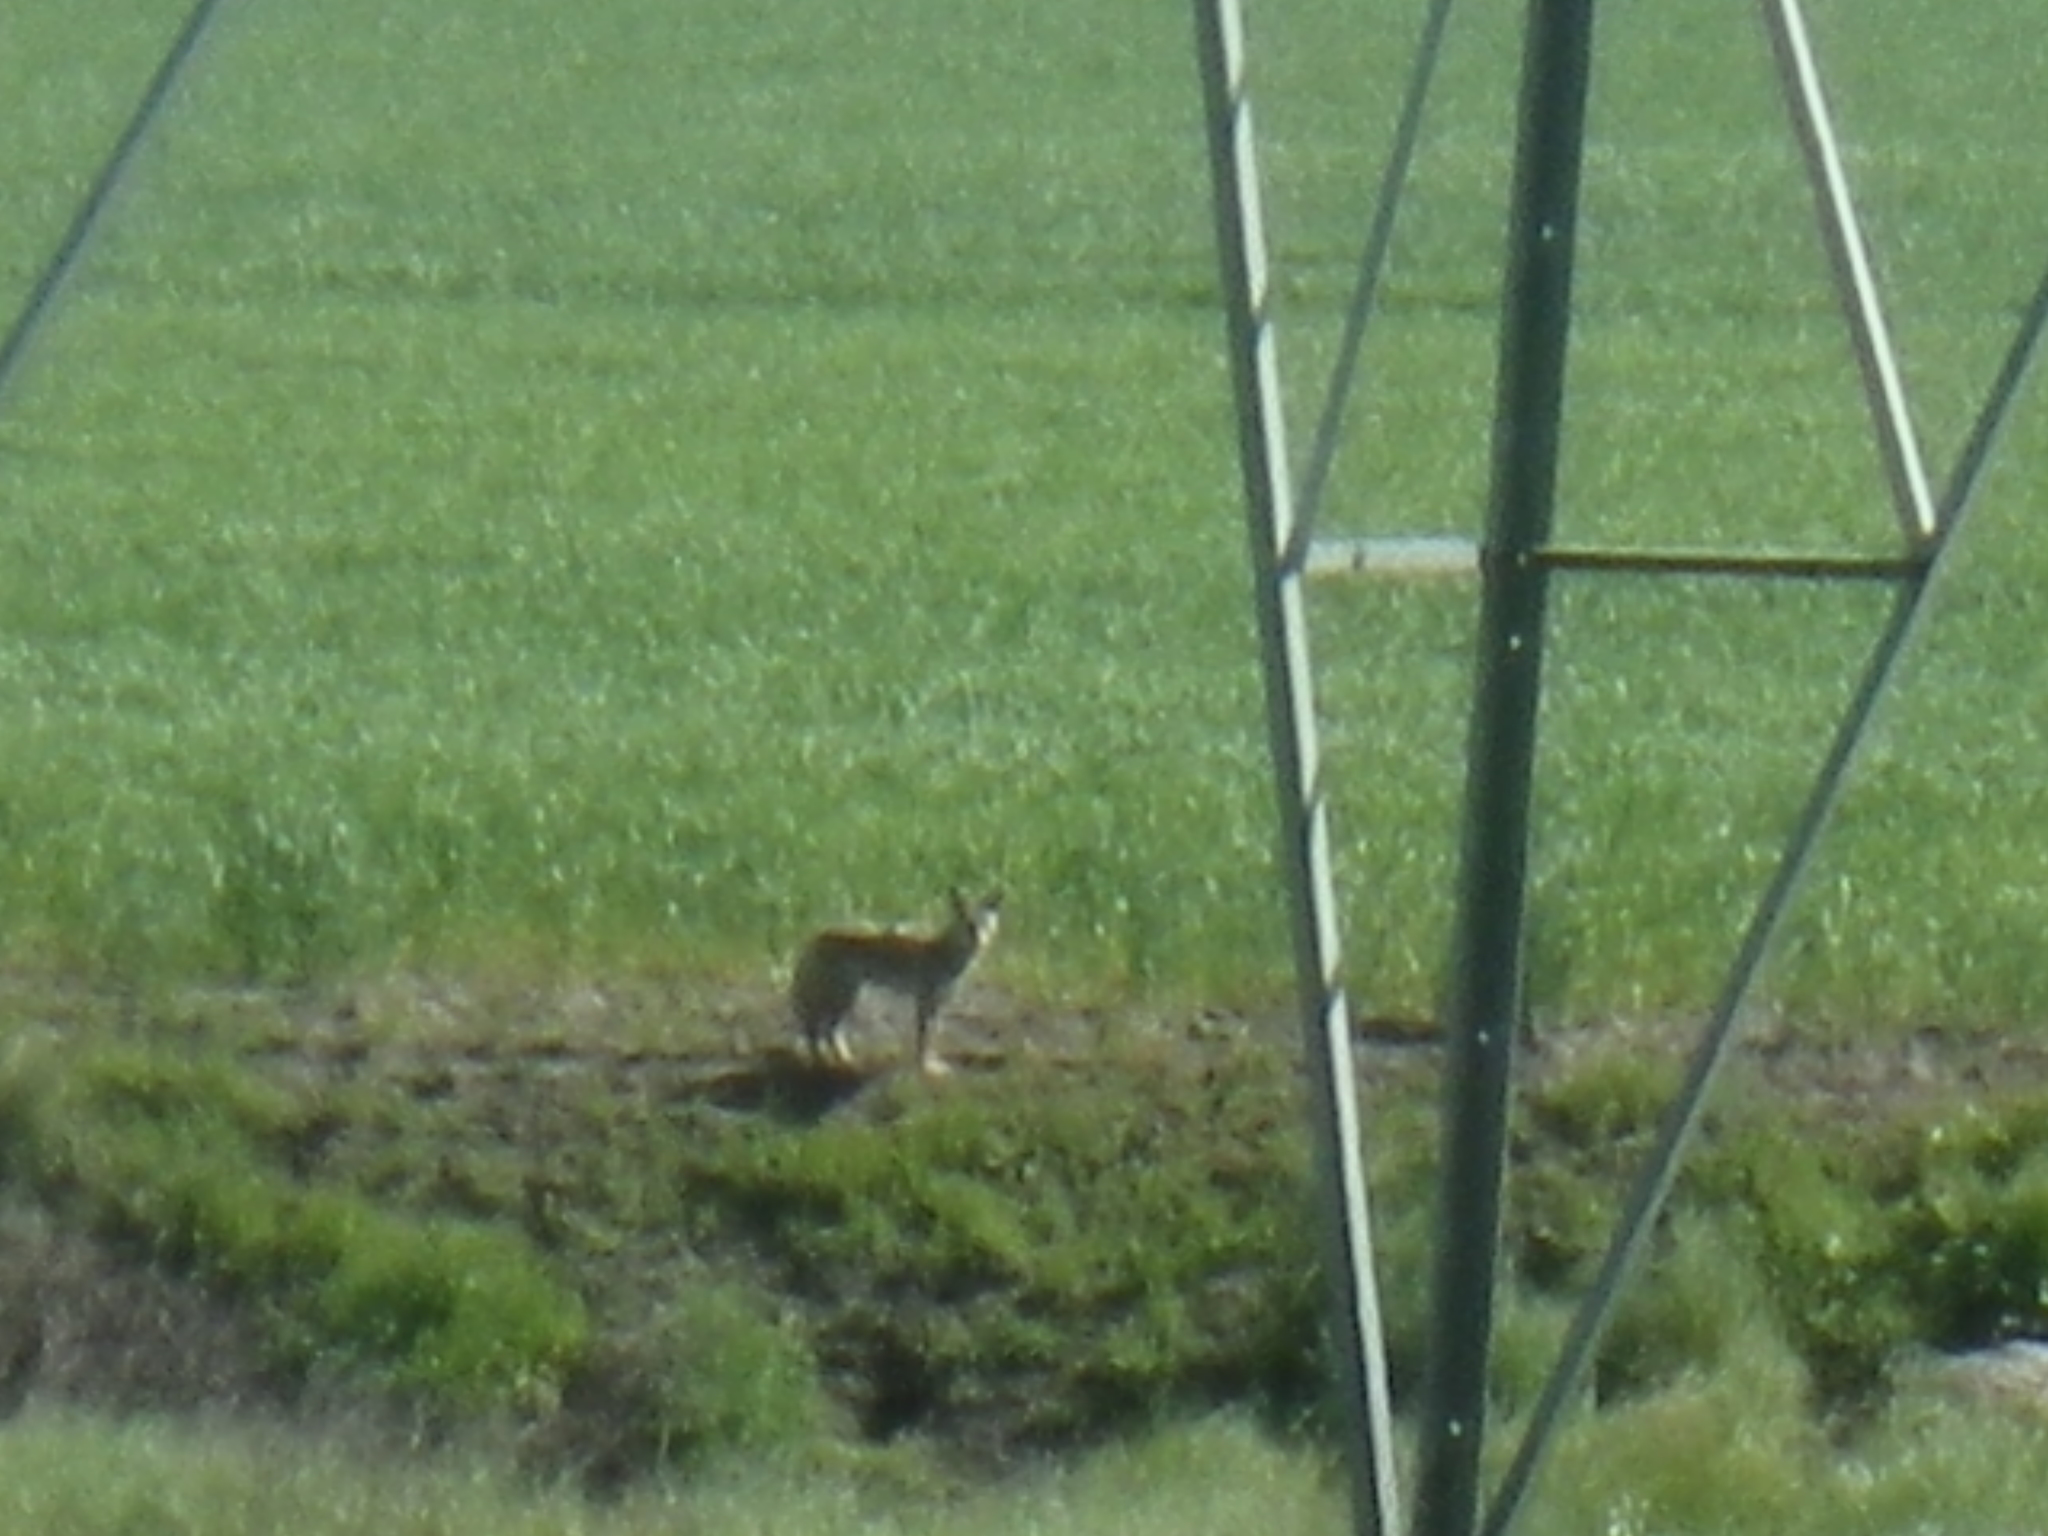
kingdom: Animalia
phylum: Chordata
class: Mammalia
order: Carnivora
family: Canidae
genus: Canis
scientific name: Canis latrans
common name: Coyote
